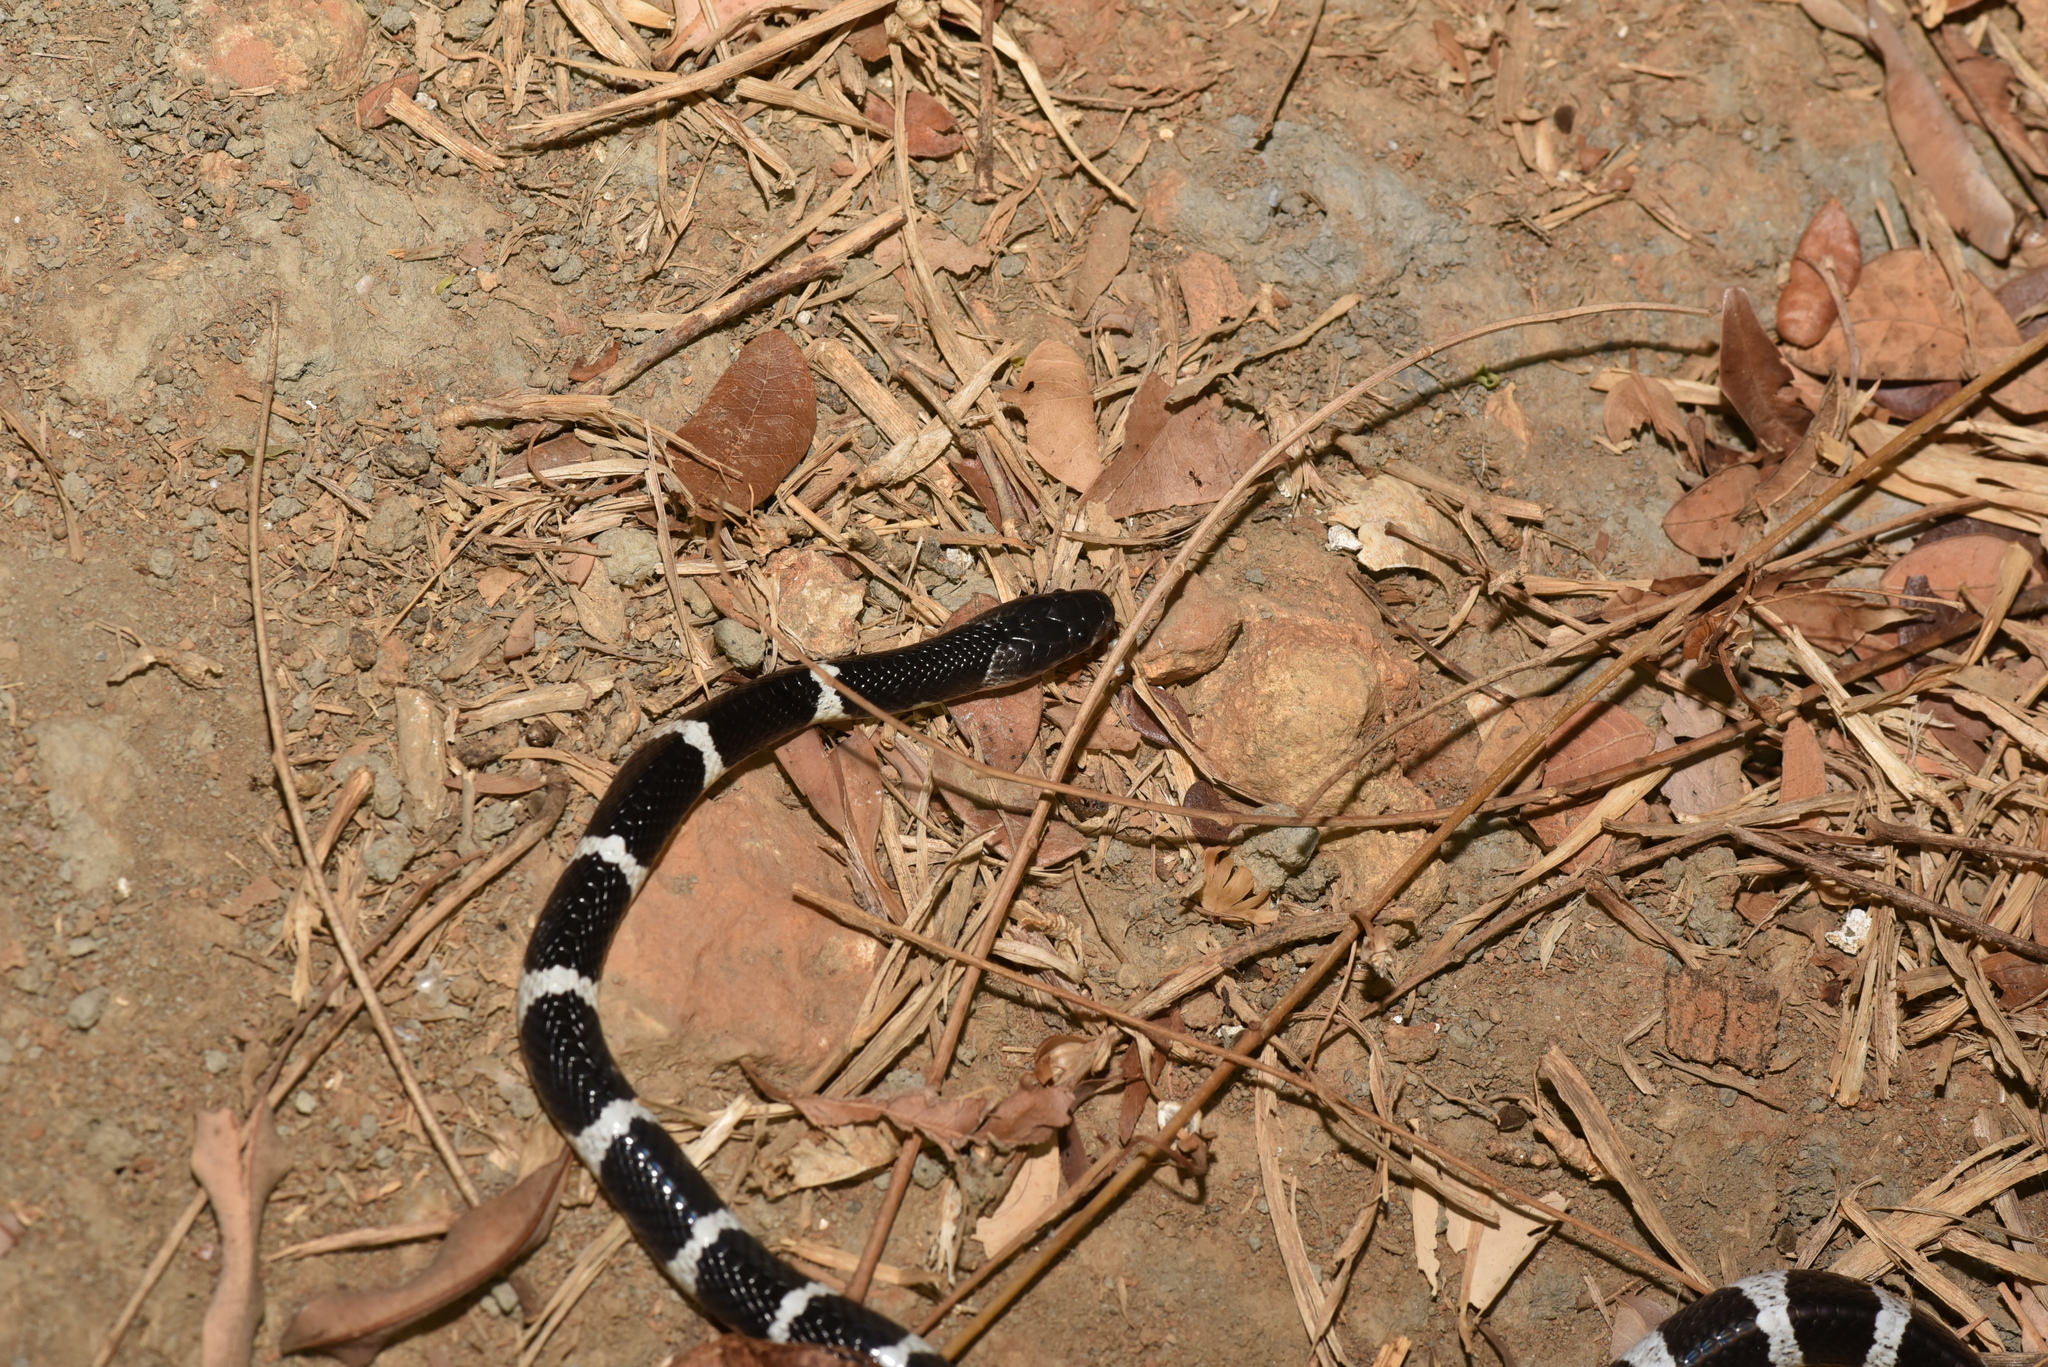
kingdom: Animalia
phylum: Chordata
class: Squamata
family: Elapidae
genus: Bungarus
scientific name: Bungarus multicinctus
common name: Many-banded krait
